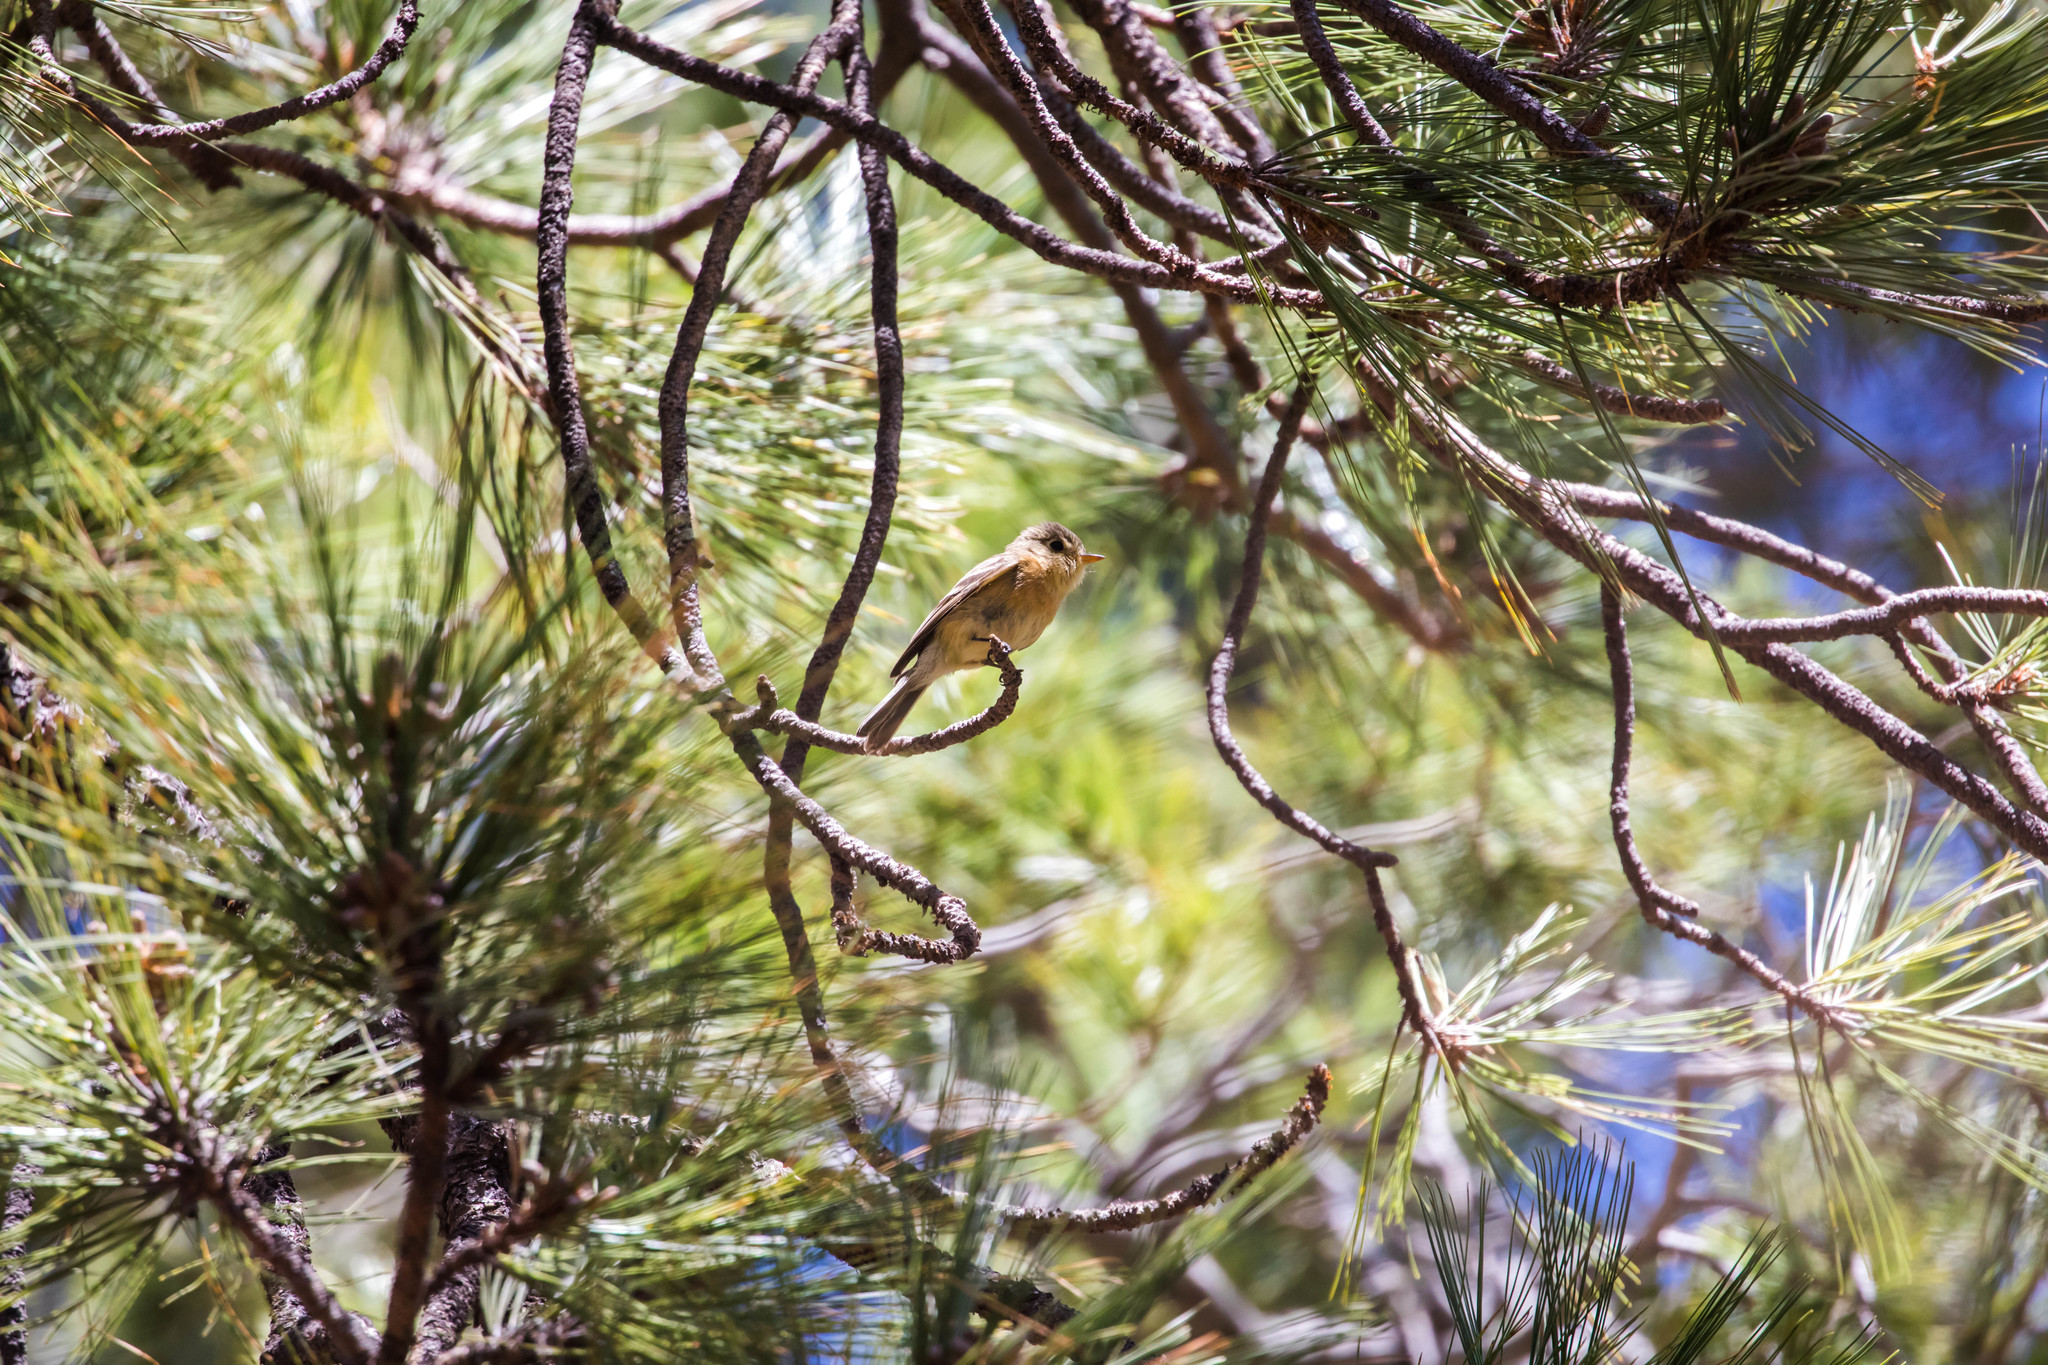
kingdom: Animalia
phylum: Chordata
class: Aves
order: Passeriformes
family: Tyrannidae
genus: Empidonax
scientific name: Empidonax fulvifrons
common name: Buff-breasted flycatcher
